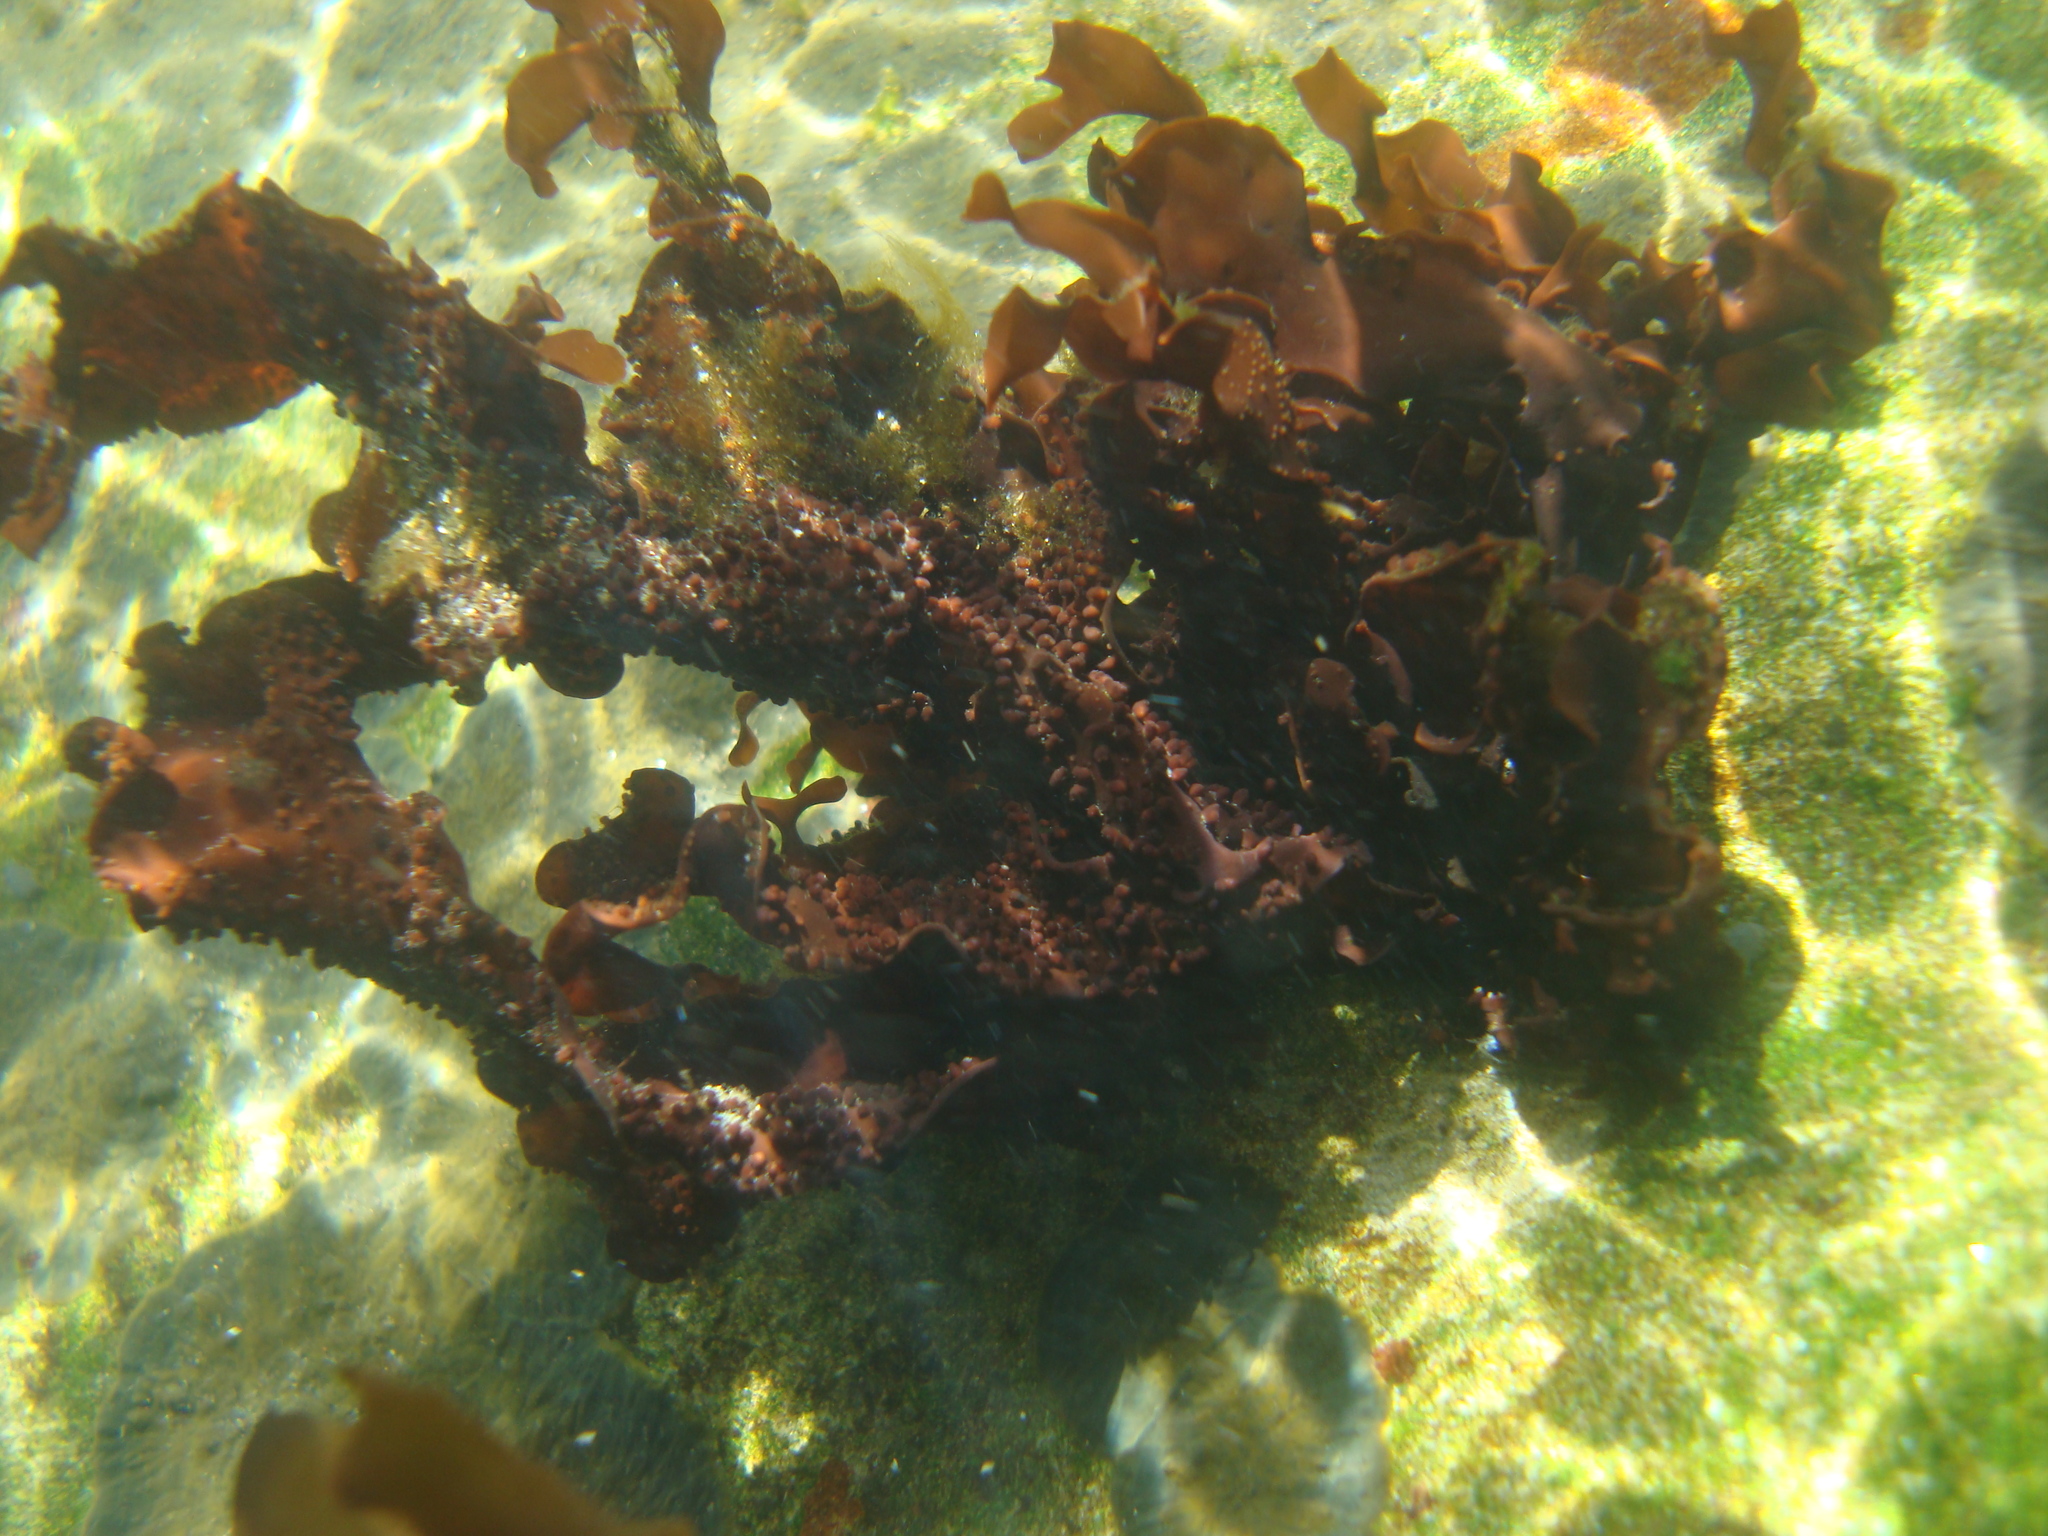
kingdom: Plantae
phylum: Rhodophyta
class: Florideophyceae
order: Gigartinales
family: Phyllophoraceae
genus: Mastocarpus
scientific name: Mastocarpus
